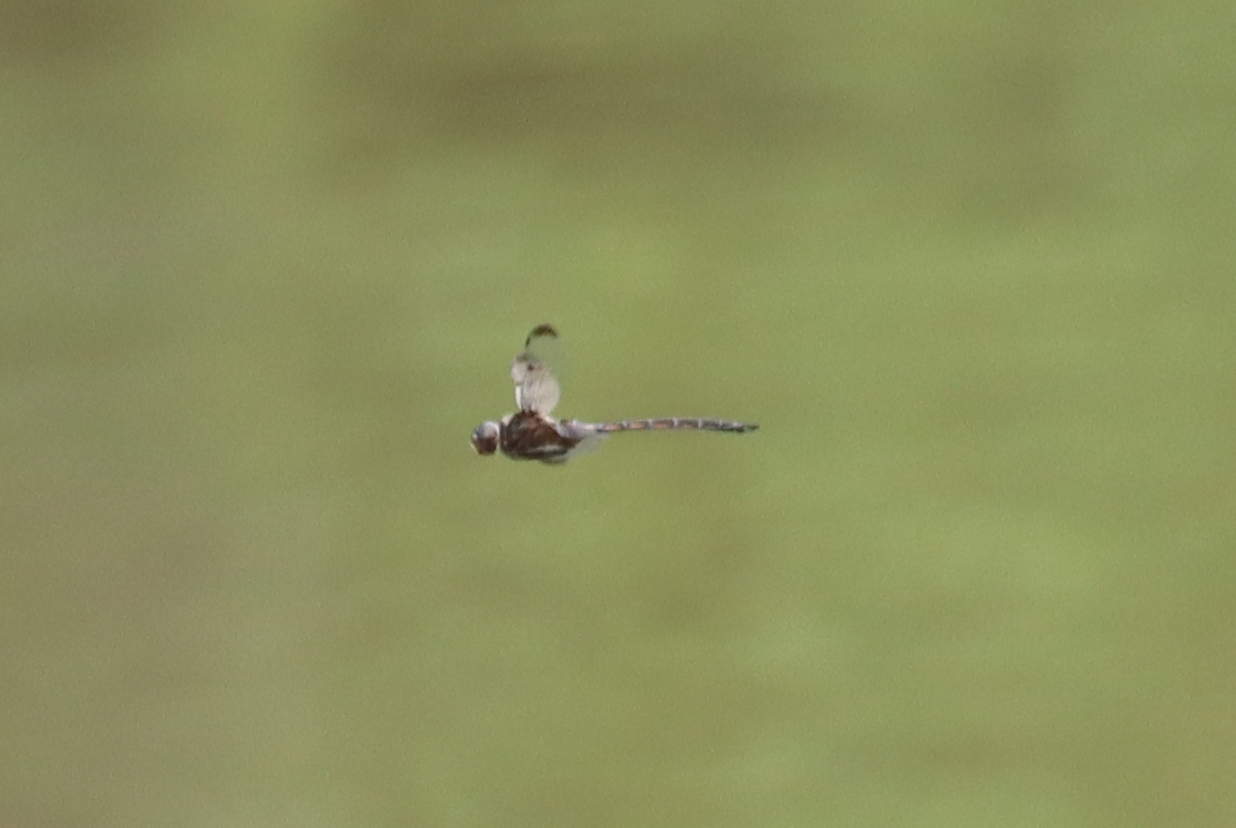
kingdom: Animalia
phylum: Arthropoda
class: Insecta
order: Odonata
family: Corduliidae
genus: Epitheca
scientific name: Epitheca princeps
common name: Prince baskettail
